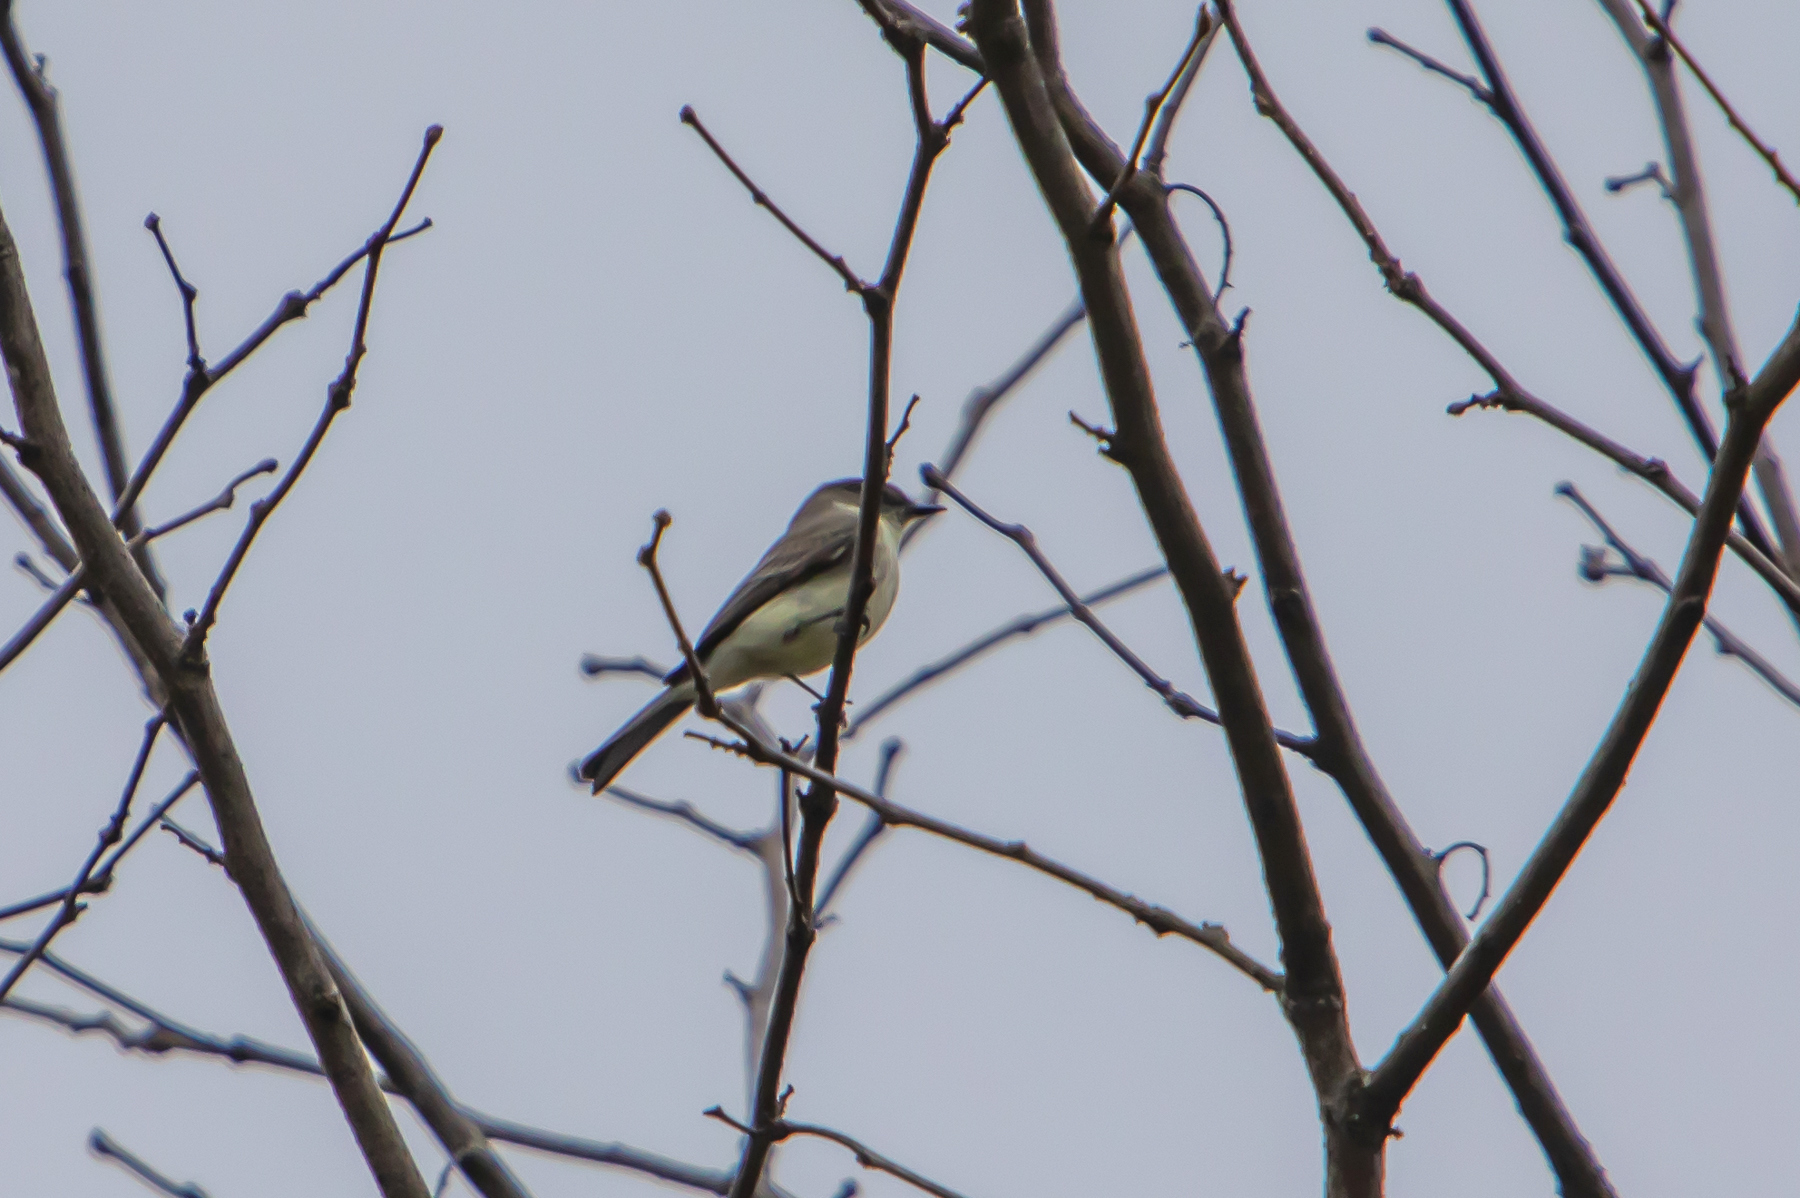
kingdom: Animalia
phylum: Chordata
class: Aves
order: Passeriformes
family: Tyrannidae
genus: Sayornis
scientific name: Sayornis phoebe
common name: Eastern phoebe
